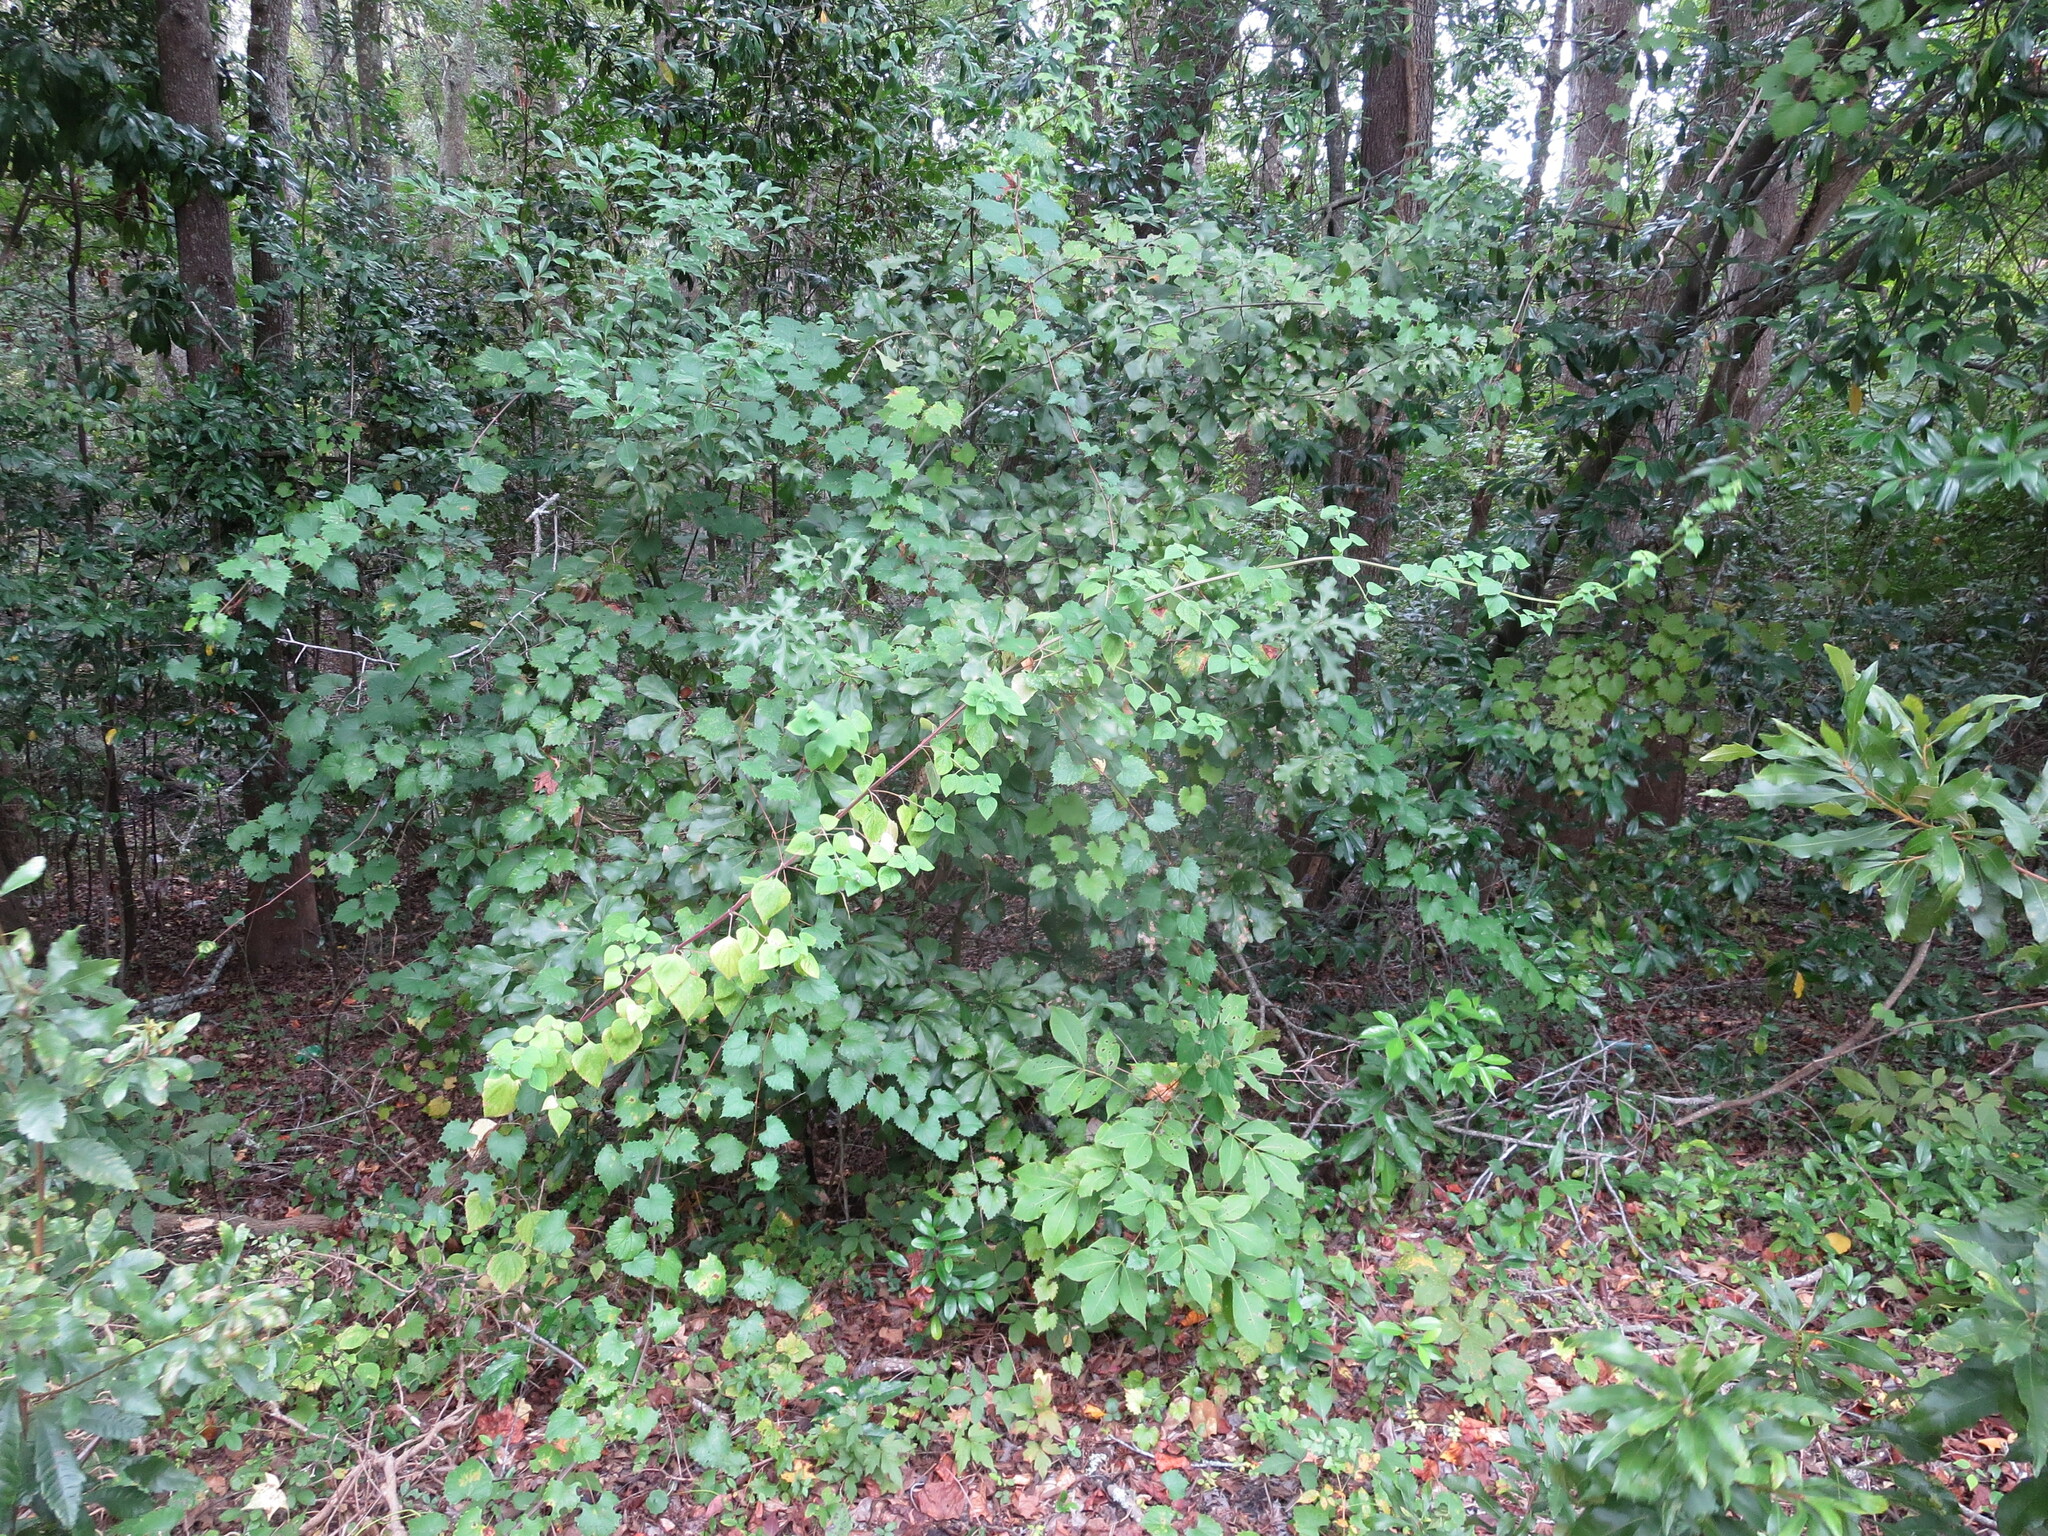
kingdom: Plantae
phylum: Tracheophyta
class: Magnoliopsida
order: Lamiales
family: Lamiaceae
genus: Cantinoa
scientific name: Cantinoa mutabilis
